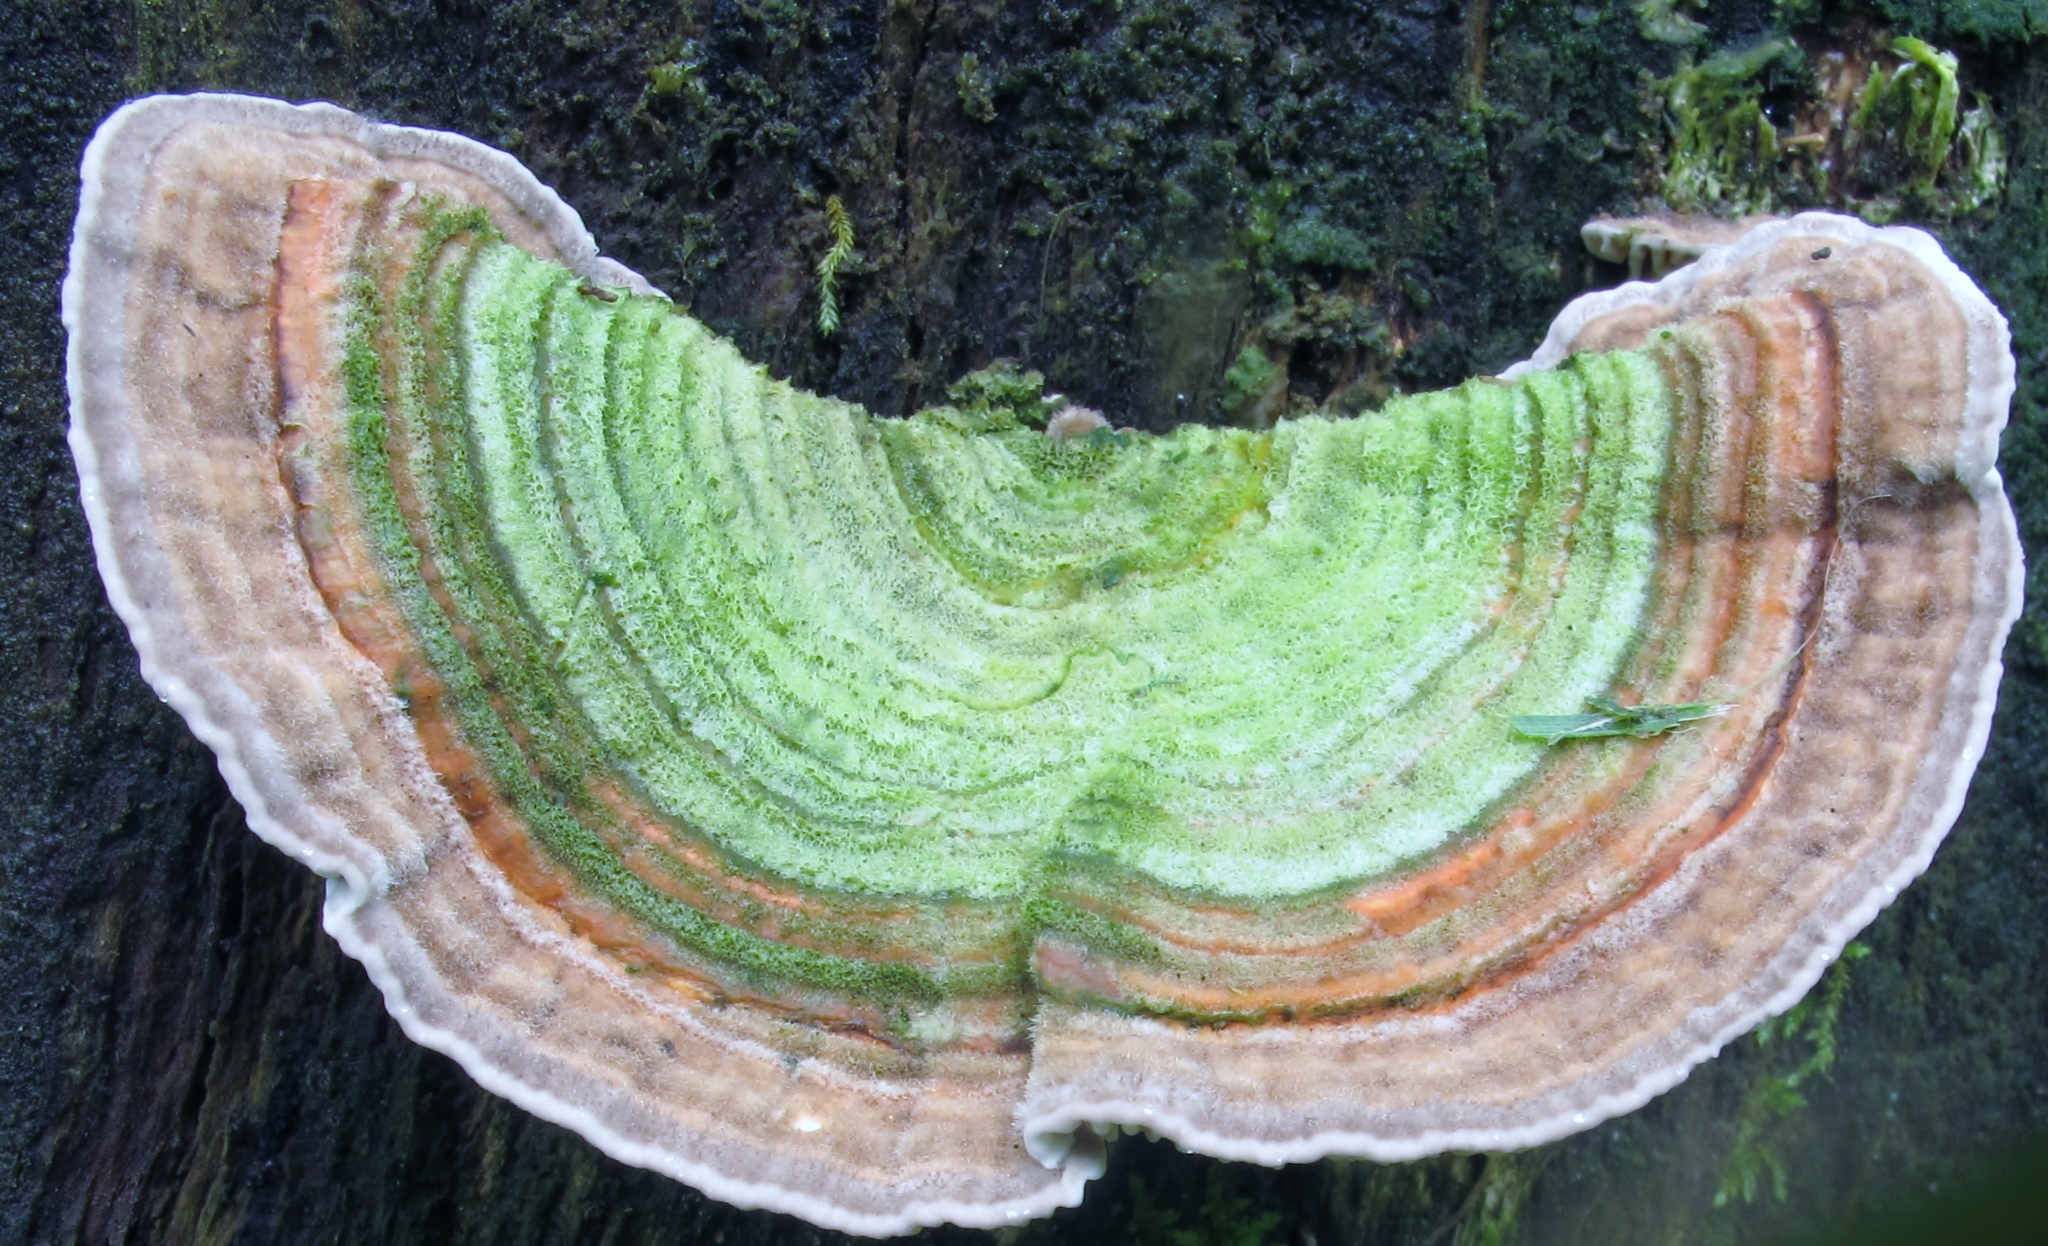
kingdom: Fungi
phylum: Basidiomycota
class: Agaricomycetes
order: Polyporales
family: Polyporaceae
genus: Lenzites
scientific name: Lenzites betulinus
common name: Birch mazegill
